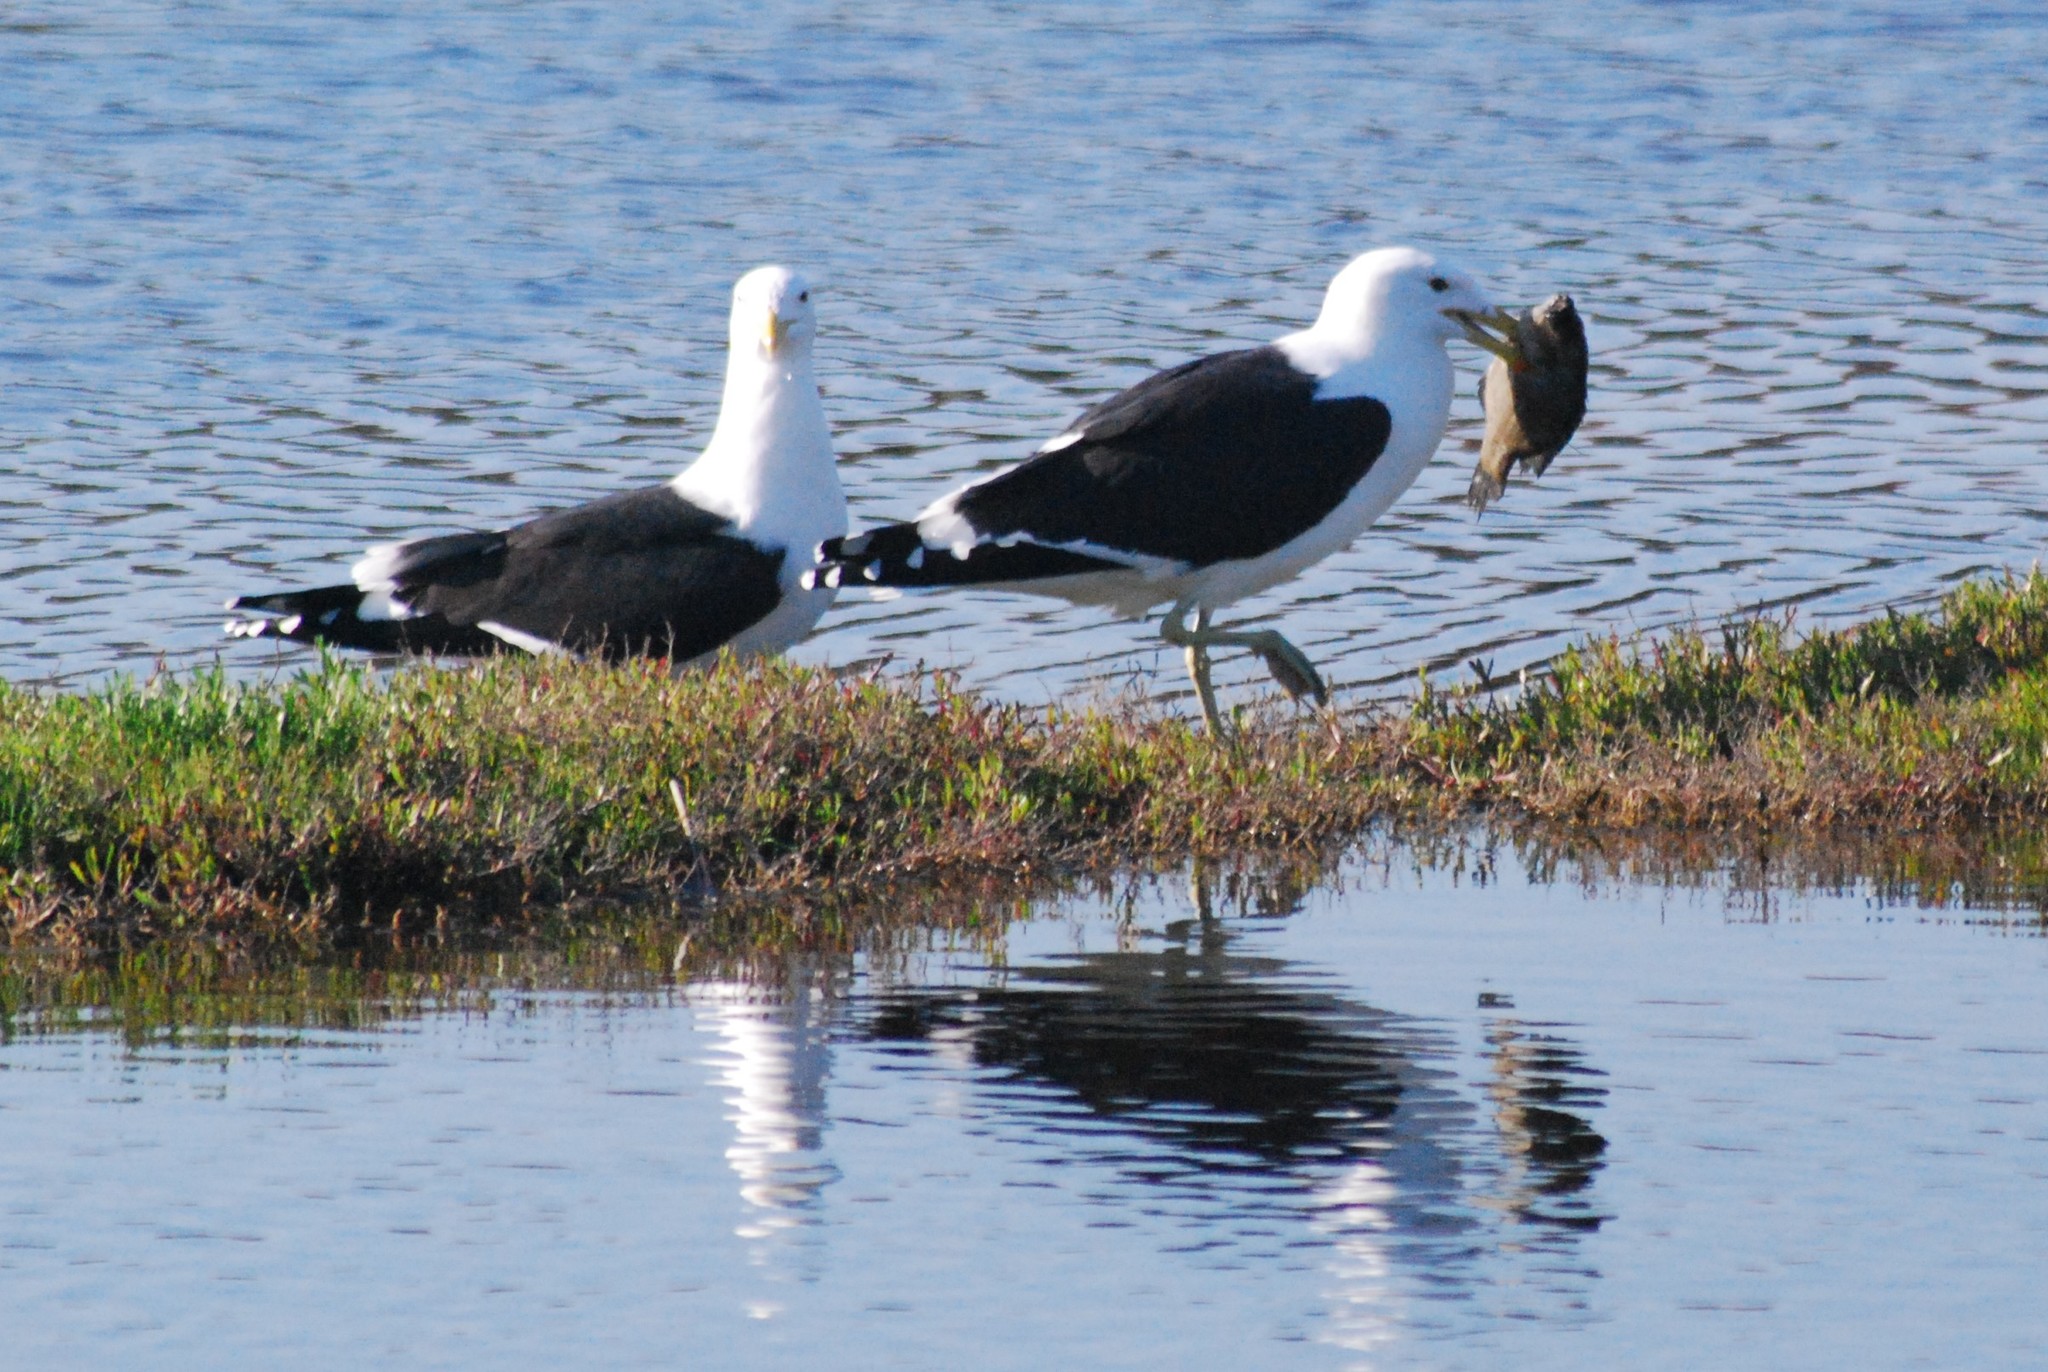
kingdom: Animalia
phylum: Chordata
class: Aves
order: Charadriiformes
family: Laridae
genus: Larus
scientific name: Larus dominicanus
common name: Kelp gull
